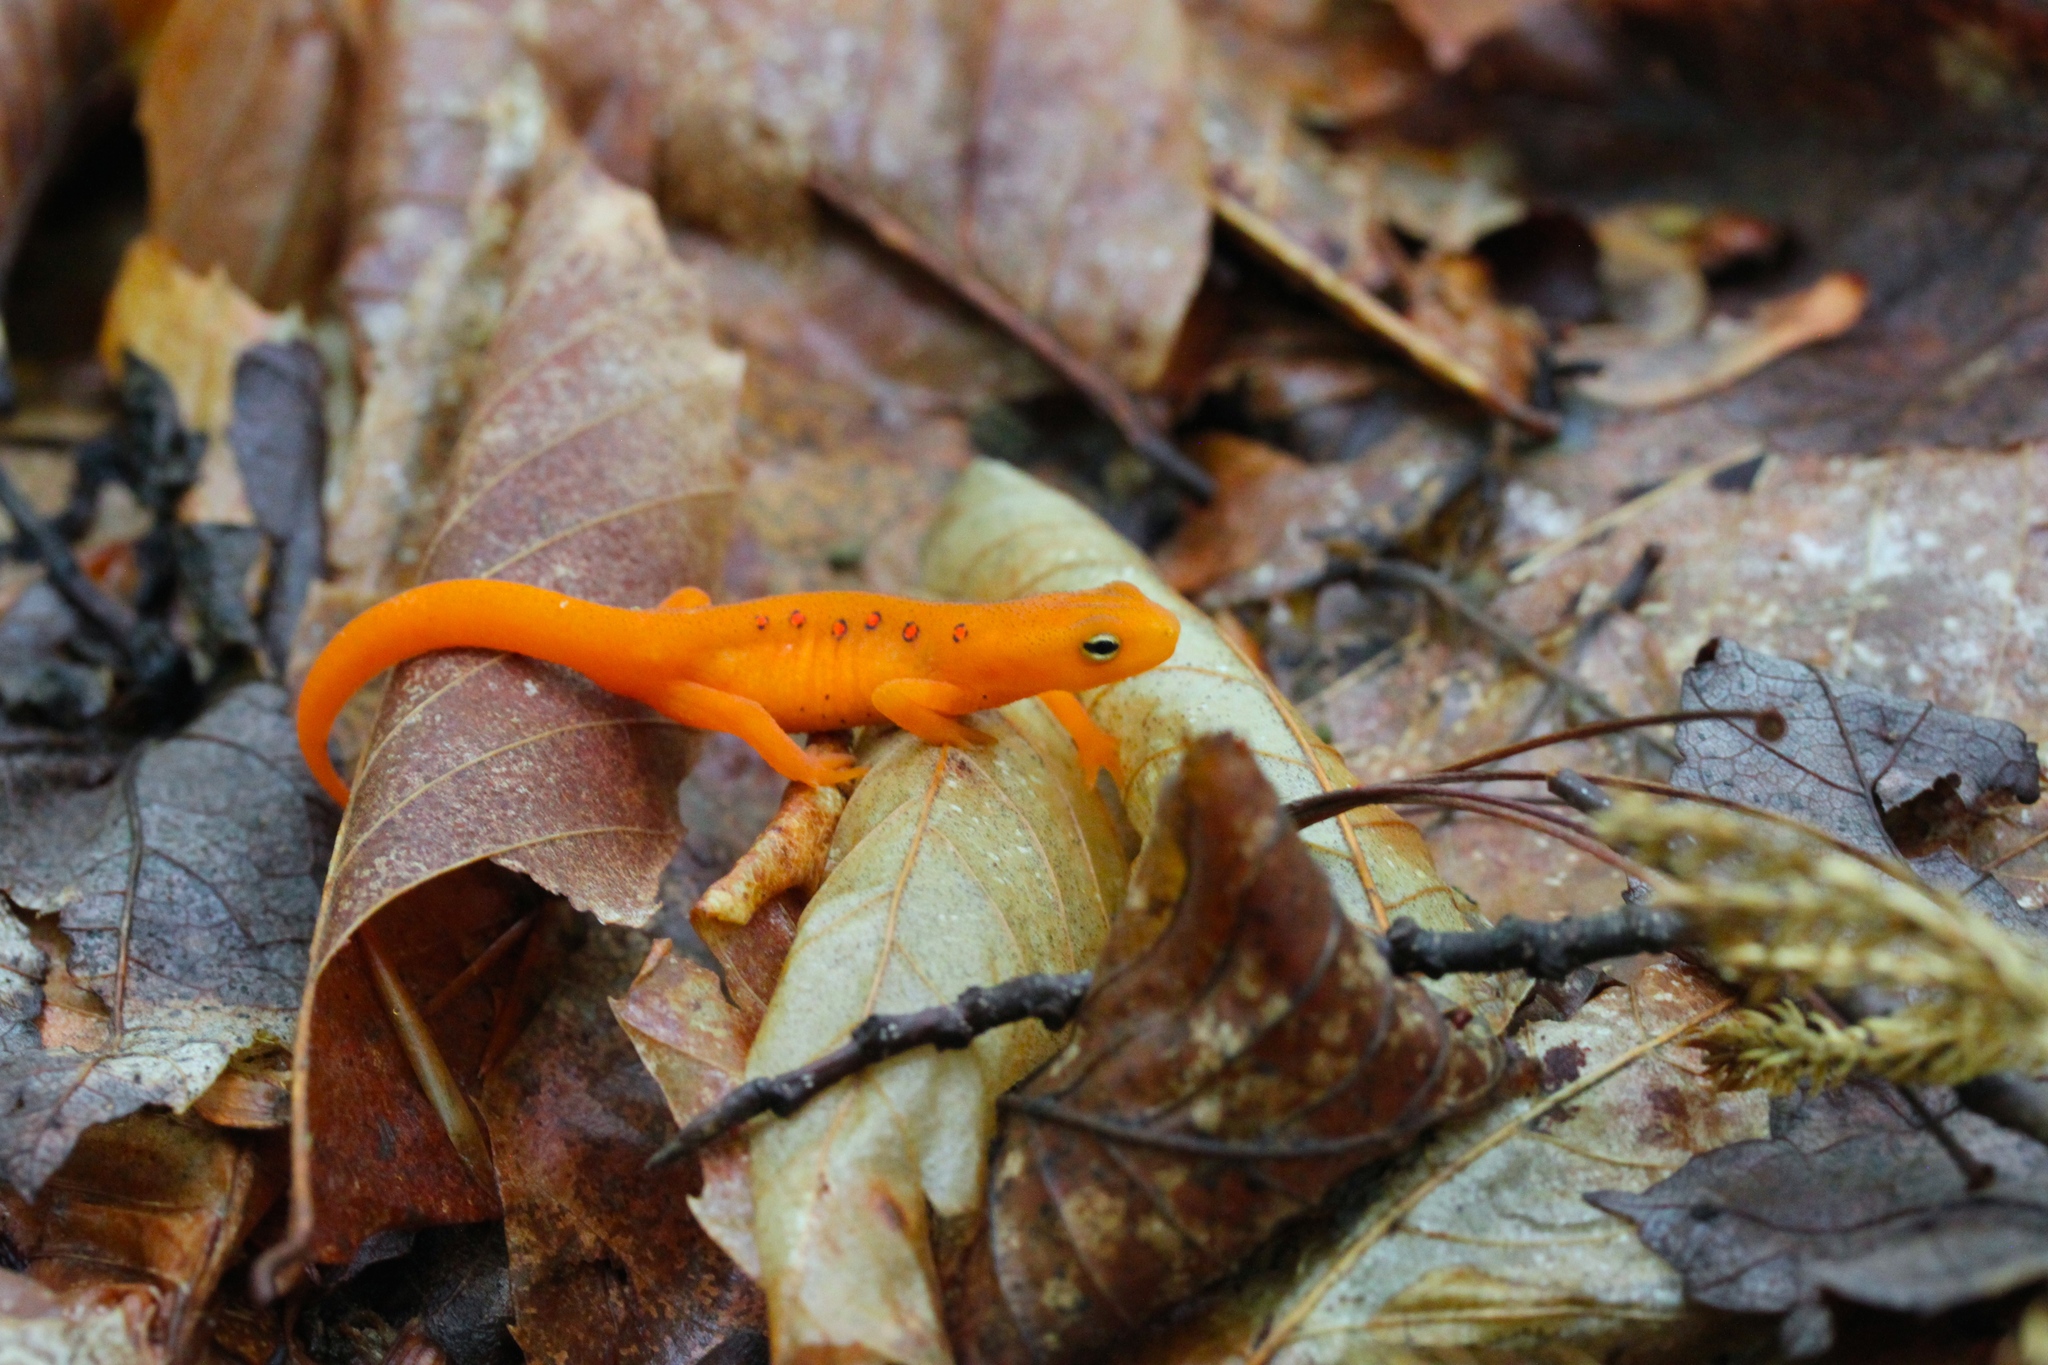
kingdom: Animalia
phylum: Chordata
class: Amphibia
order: Caudata
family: Salamandridae
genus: Notophthalmus
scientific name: Notophthalmus viridescens
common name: Eastern newt
